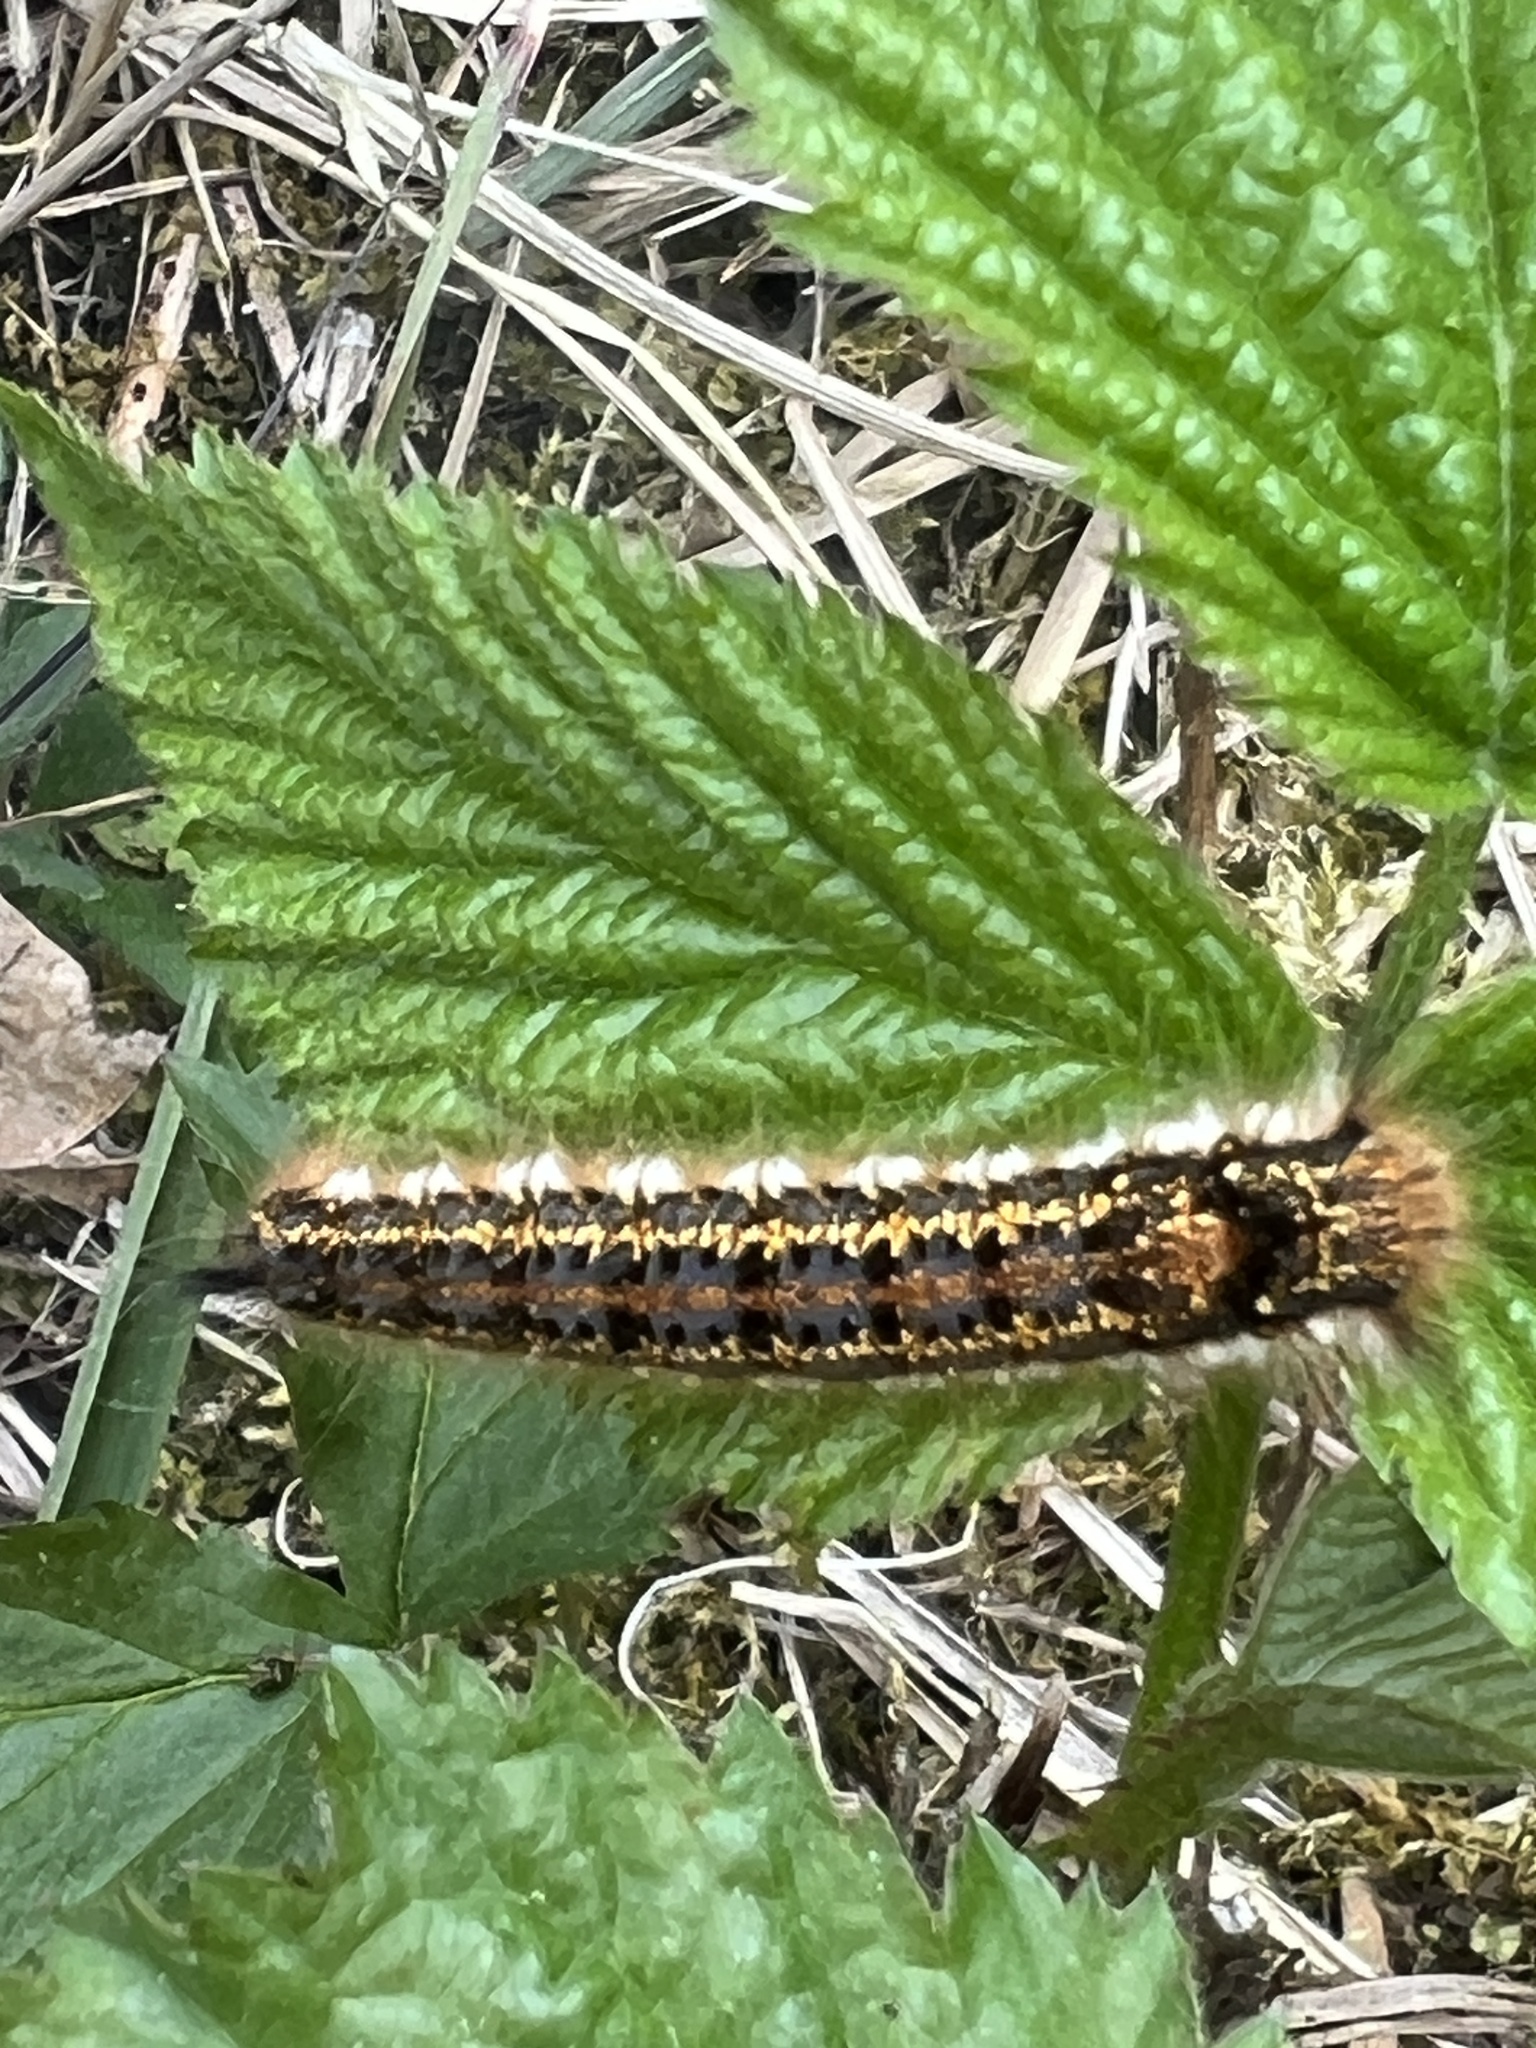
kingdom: Animalia
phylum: Arthropoda
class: Insecta
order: Lepidoptera
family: Lasiocampidae
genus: Euthrix
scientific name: Euthrix potatoria
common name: Drinker
